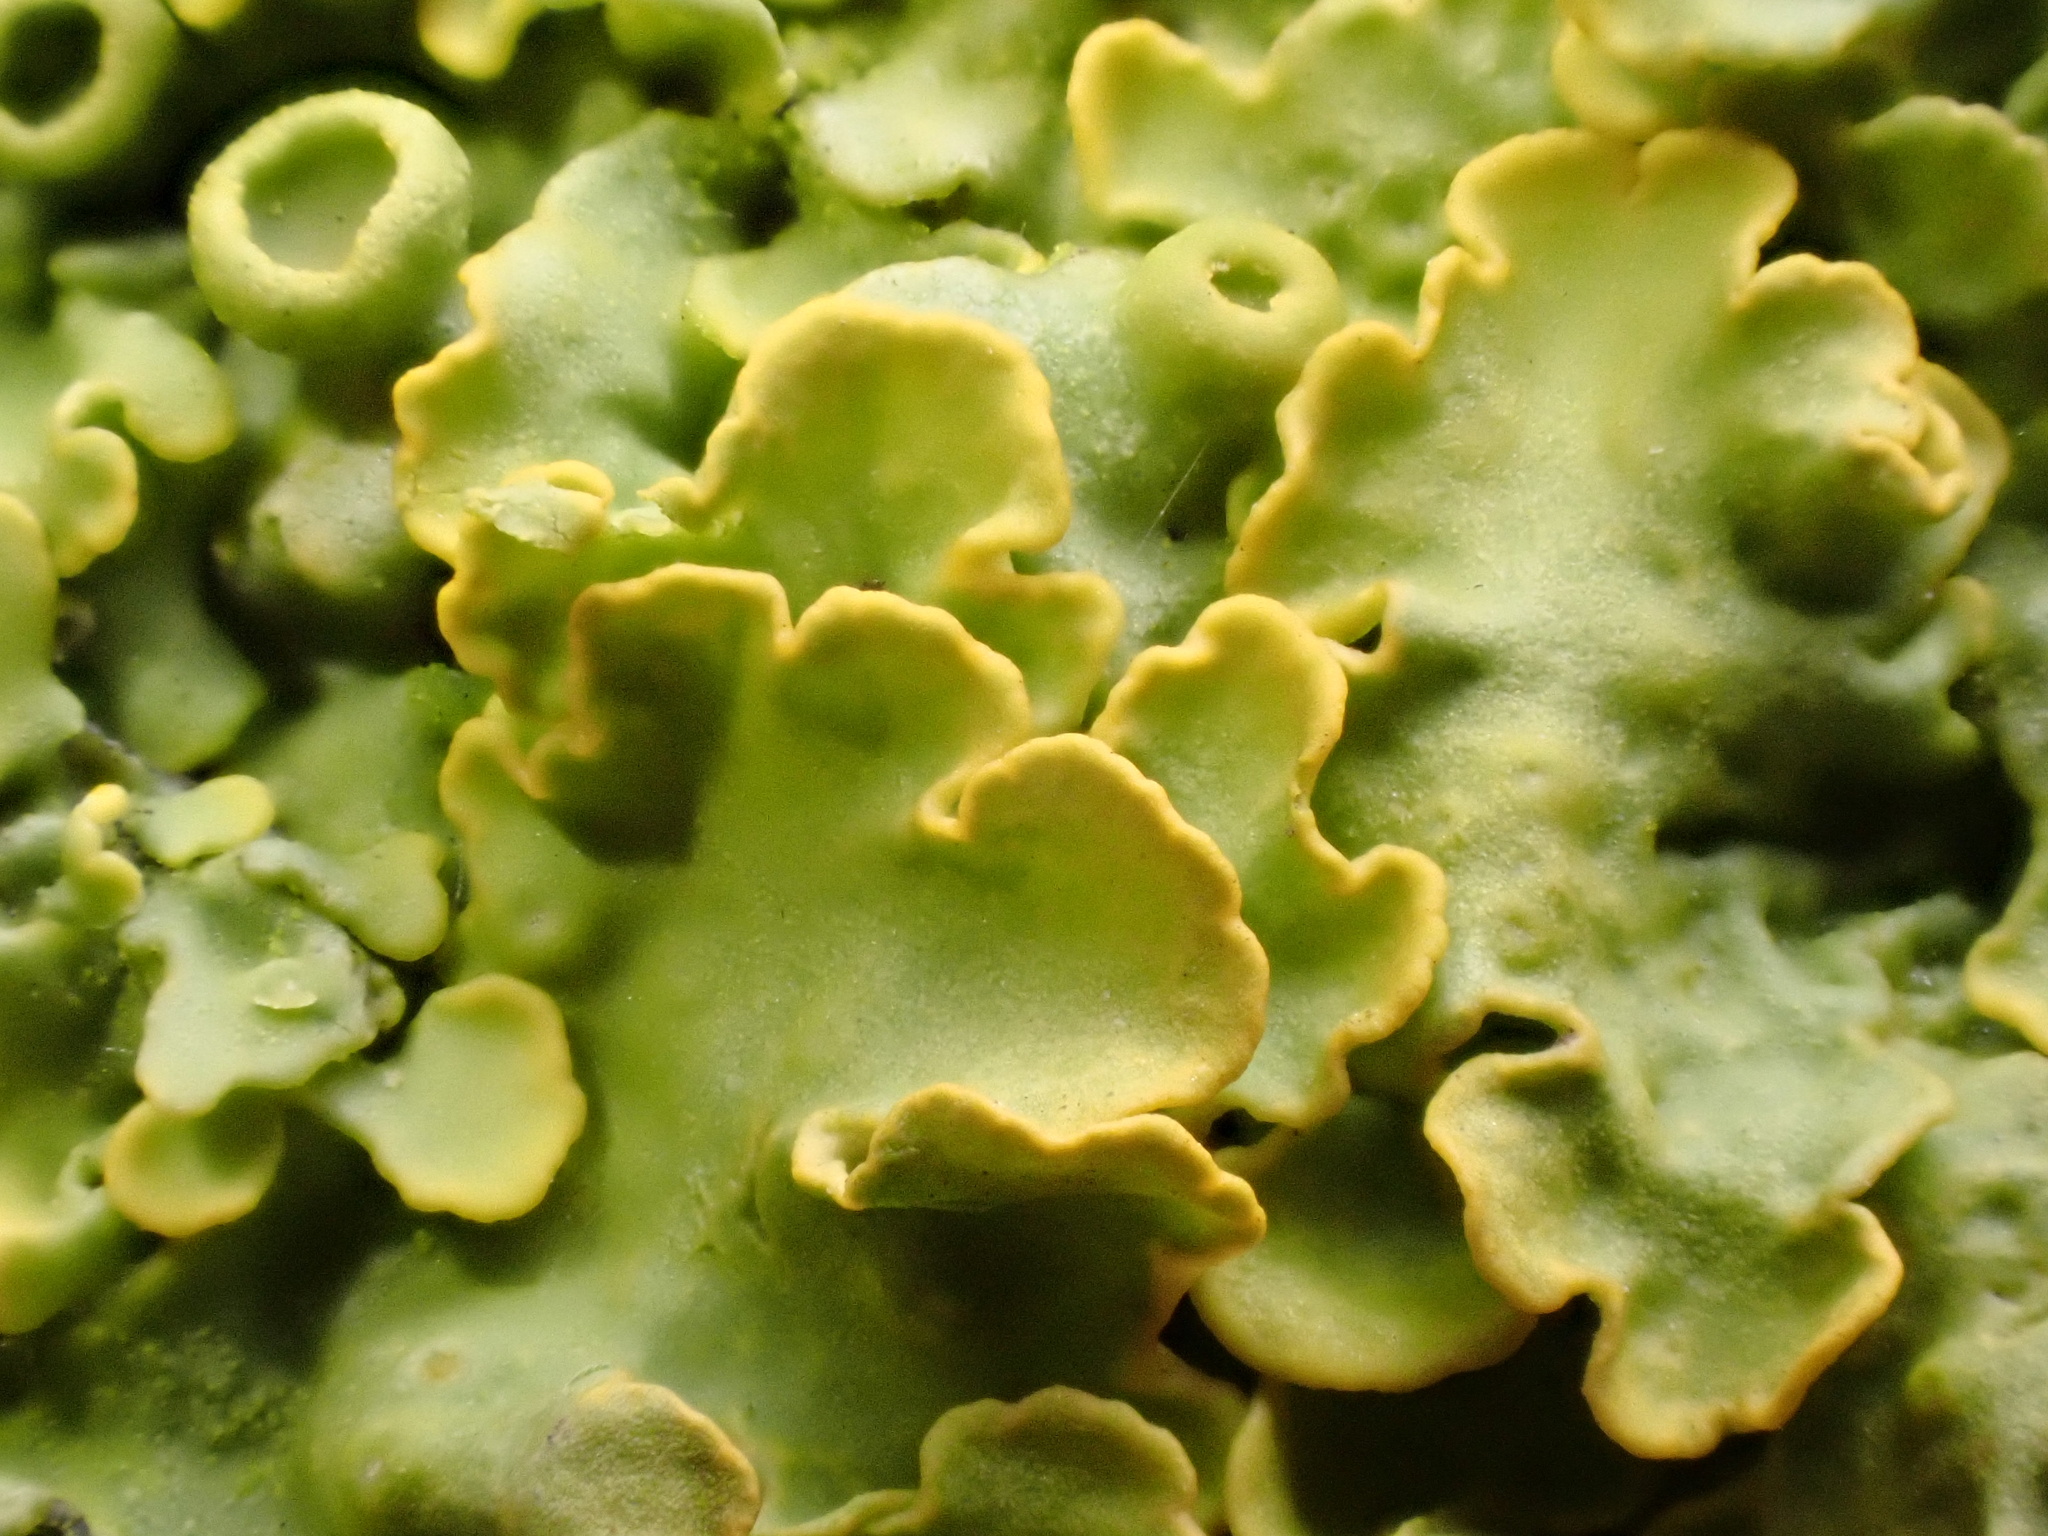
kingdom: Fungi
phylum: Ascomycota
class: Lecanoromycetes
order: Teloschistales
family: Teloschistaceae
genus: Xanthoria
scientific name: Xanthoria parietina
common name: Common orange lichen
